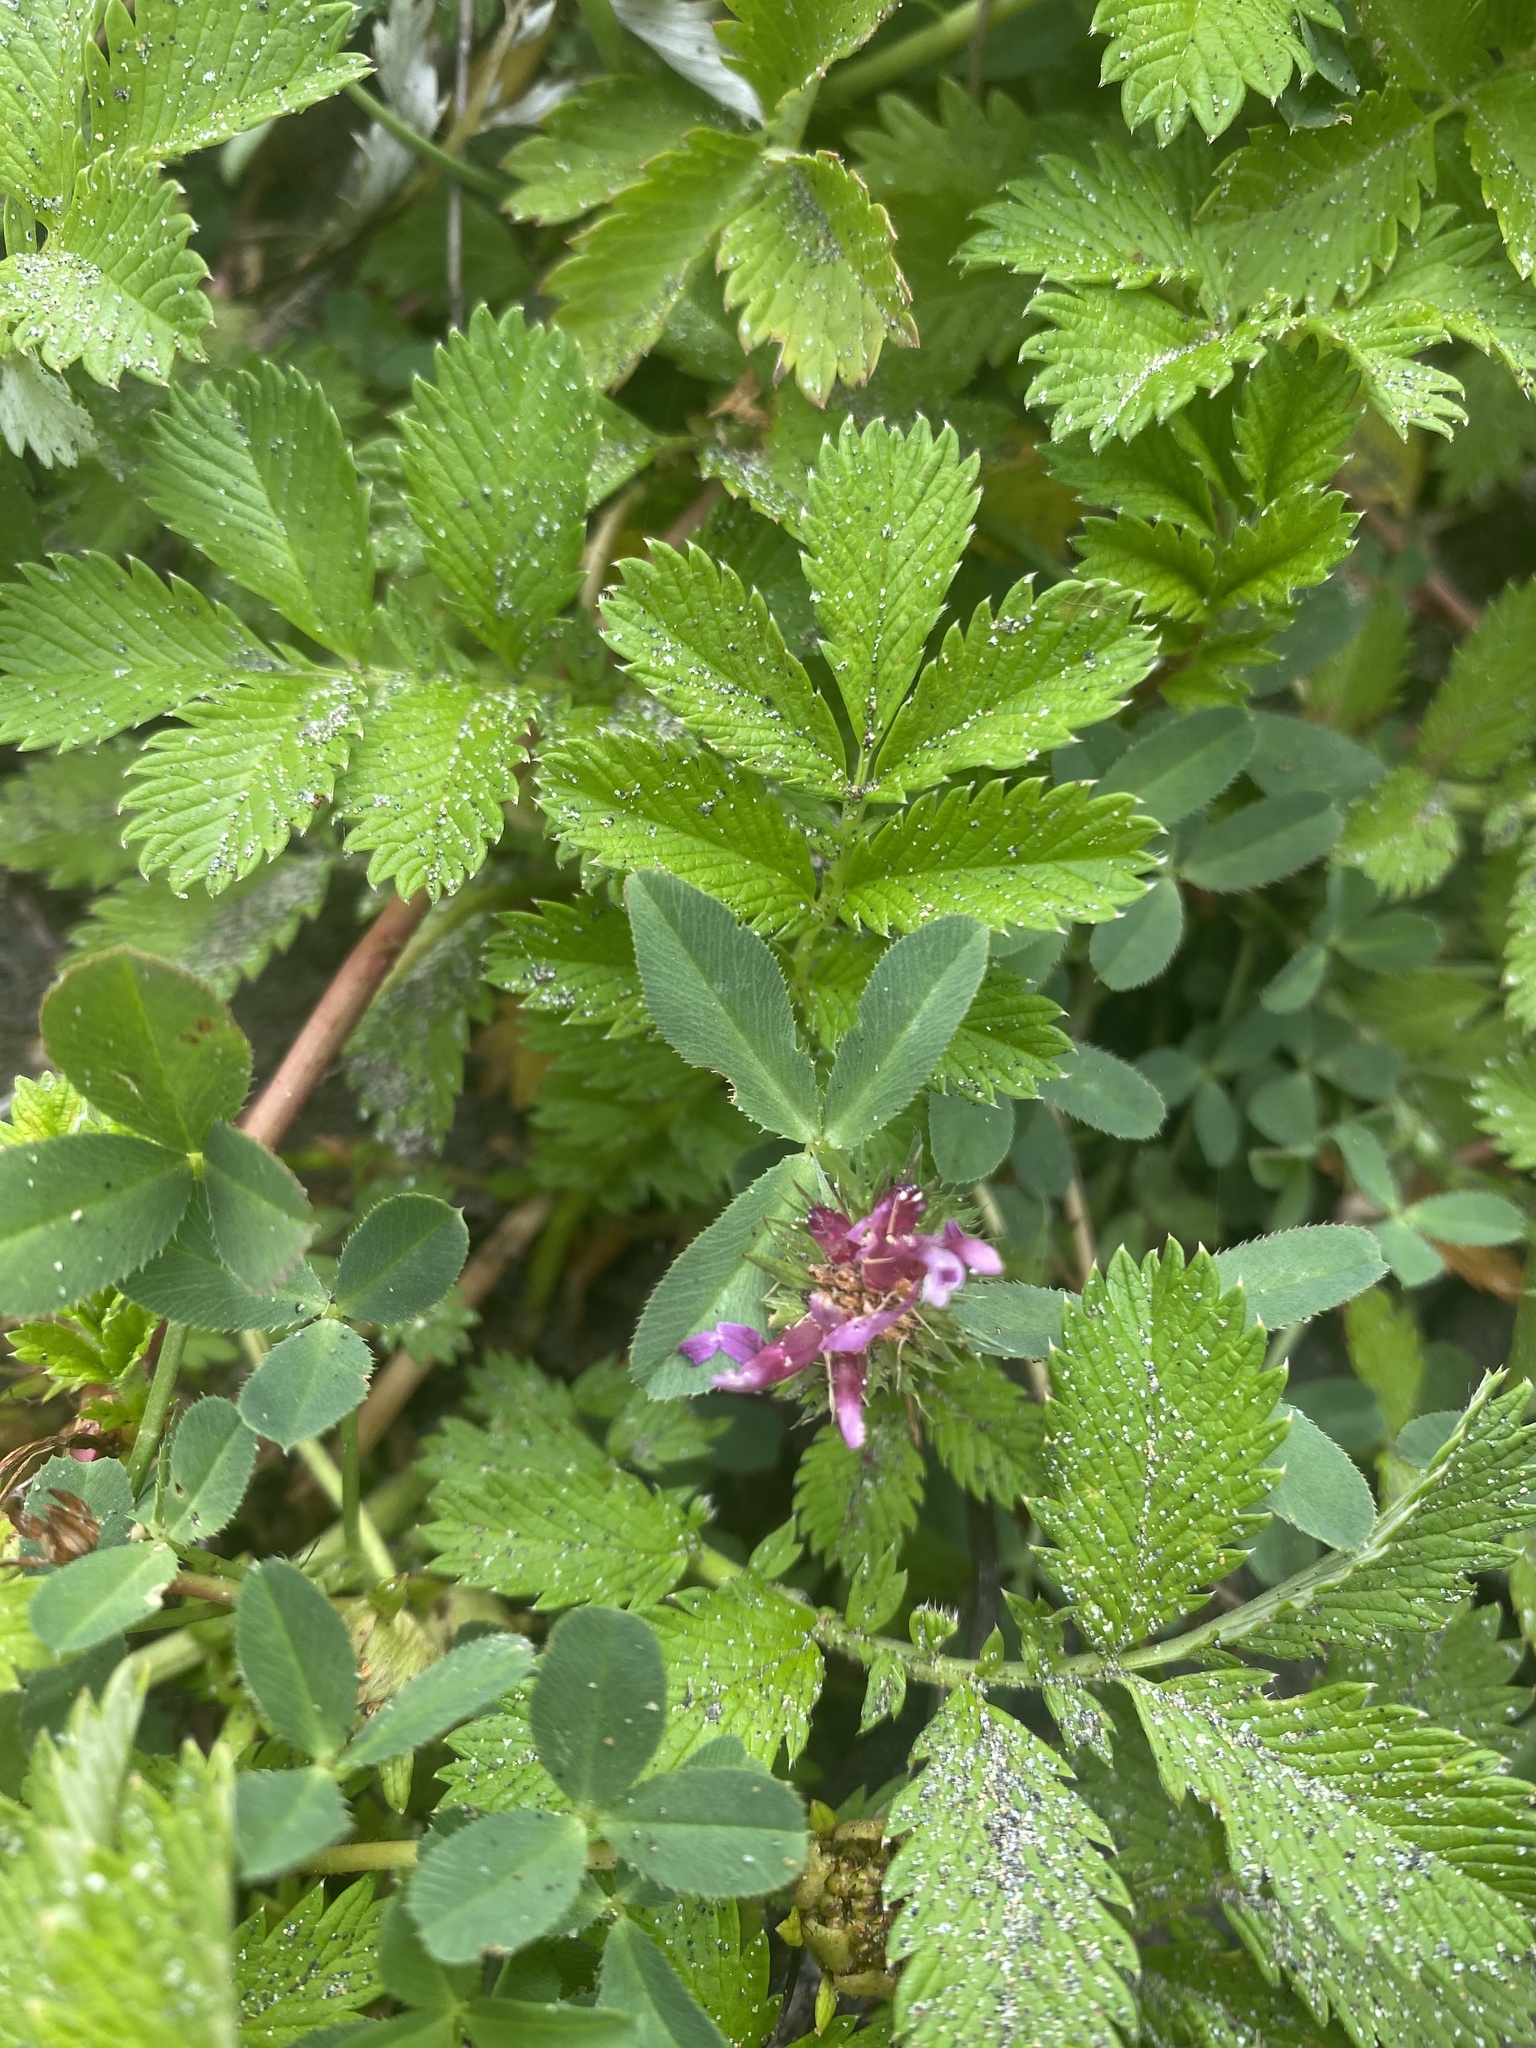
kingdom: Plantae
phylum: Tracheophyta
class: Magnoliopsida
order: Fabales
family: Fabaceae
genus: Trifolium
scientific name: Trifolium wormskioldii
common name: Springbank clover
